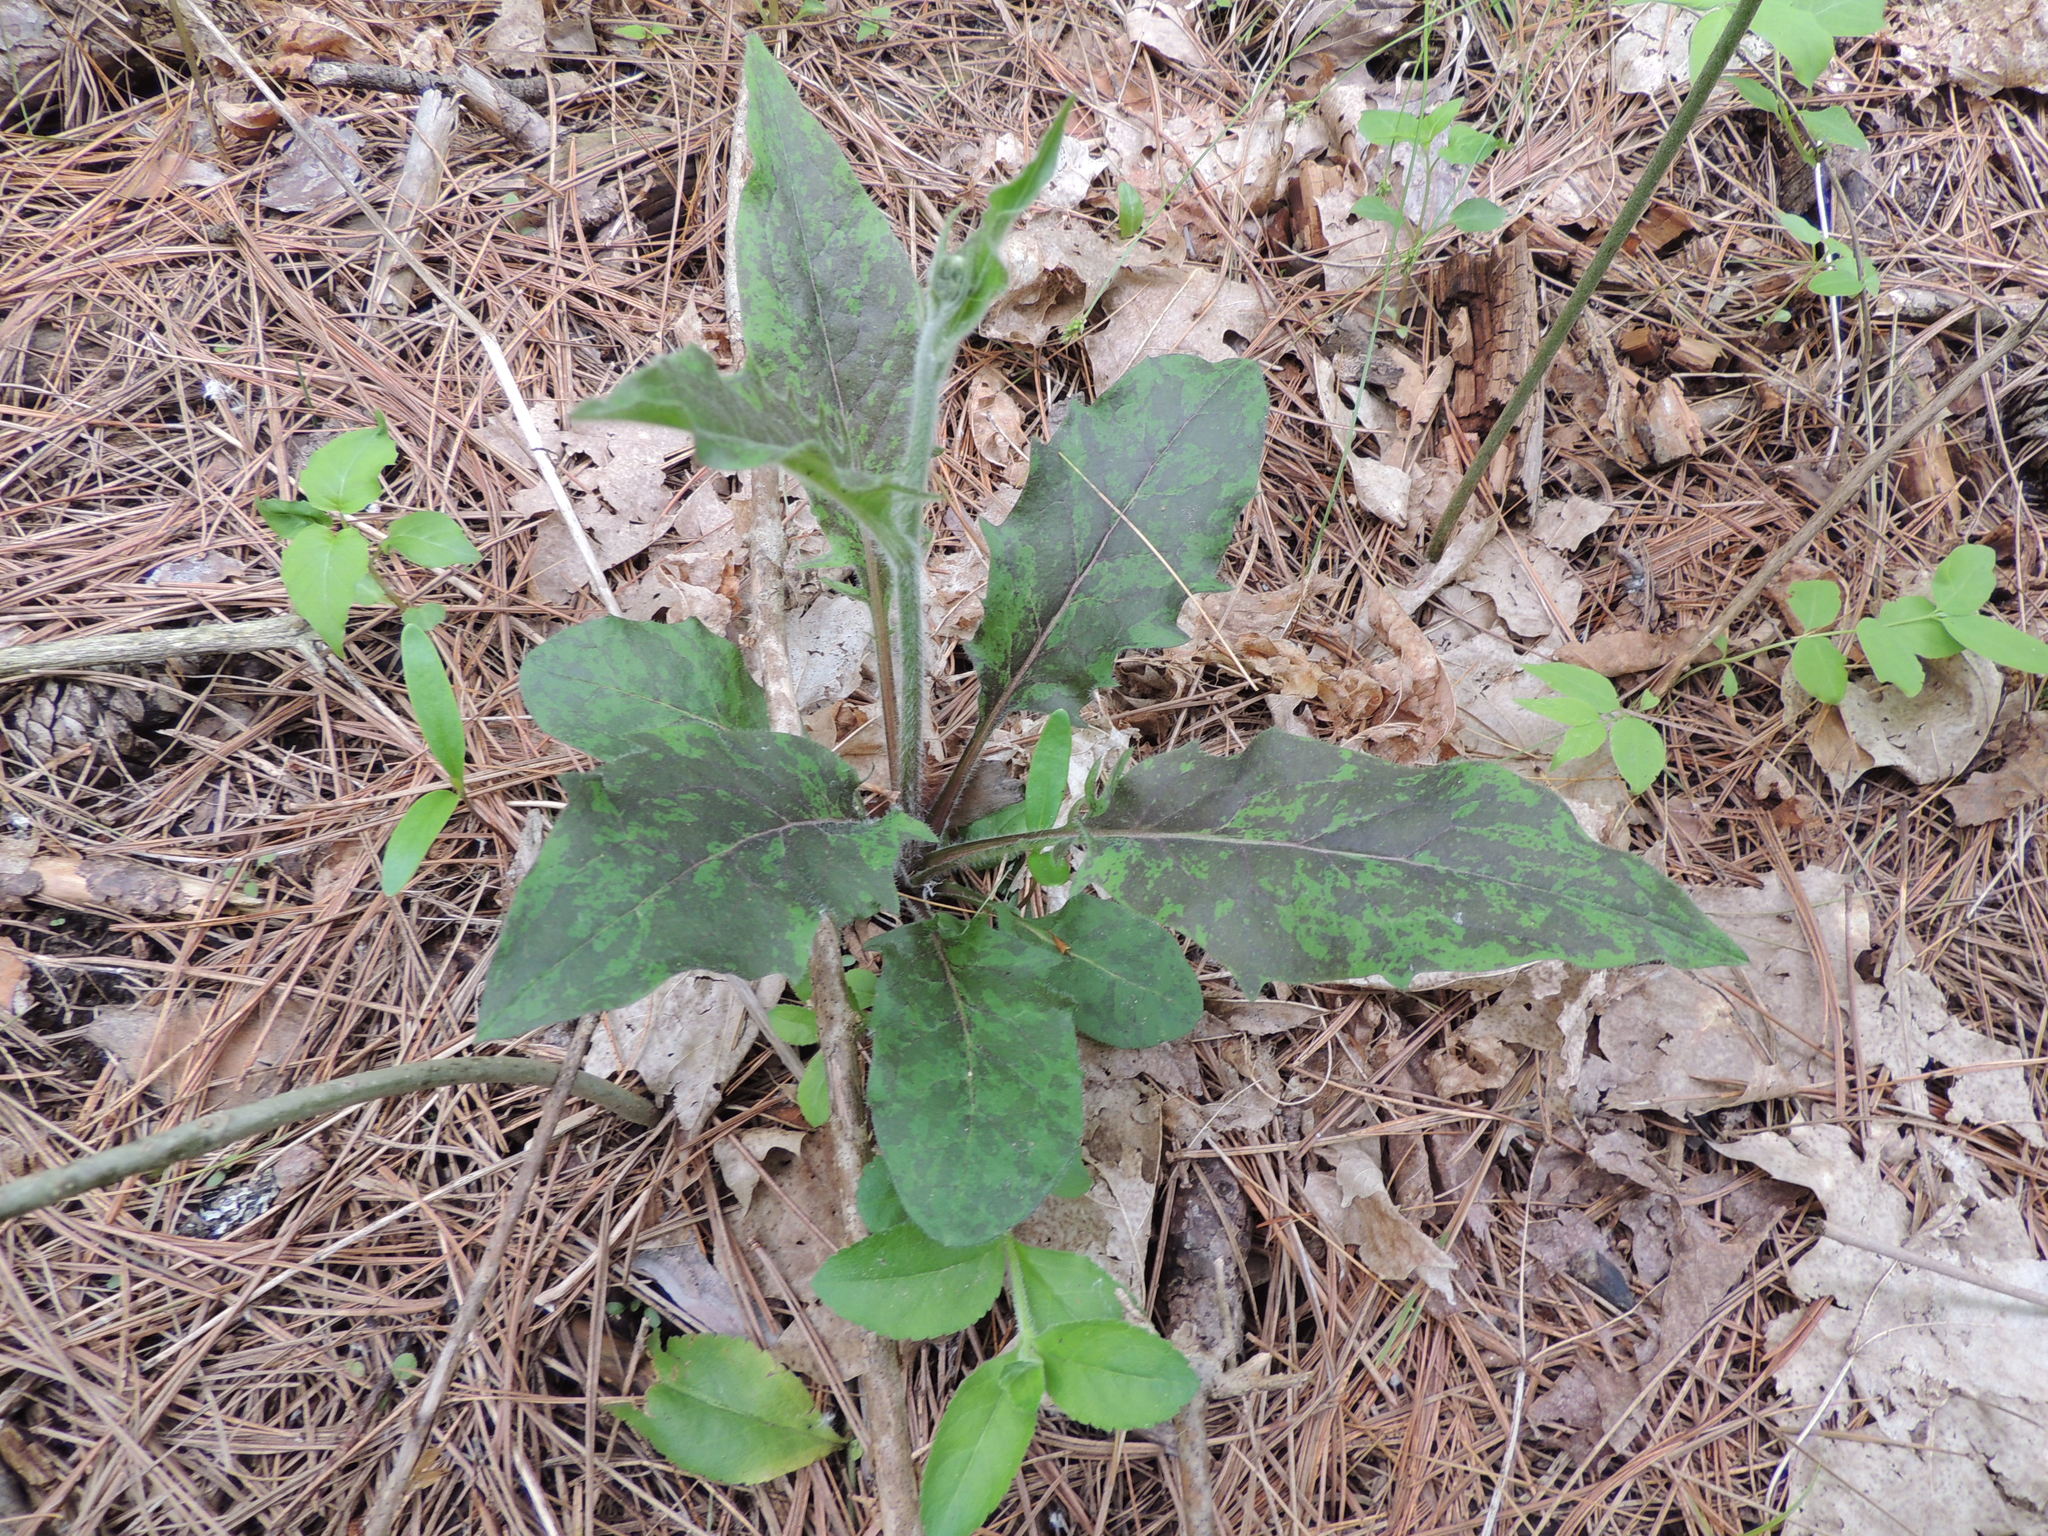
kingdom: Plantae
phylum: Tracheophyta
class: Magnoliopsida
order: Asterales
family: Asteraceae
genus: Hieracium
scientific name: Hieracium lachenalii
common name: Common hawkweed
